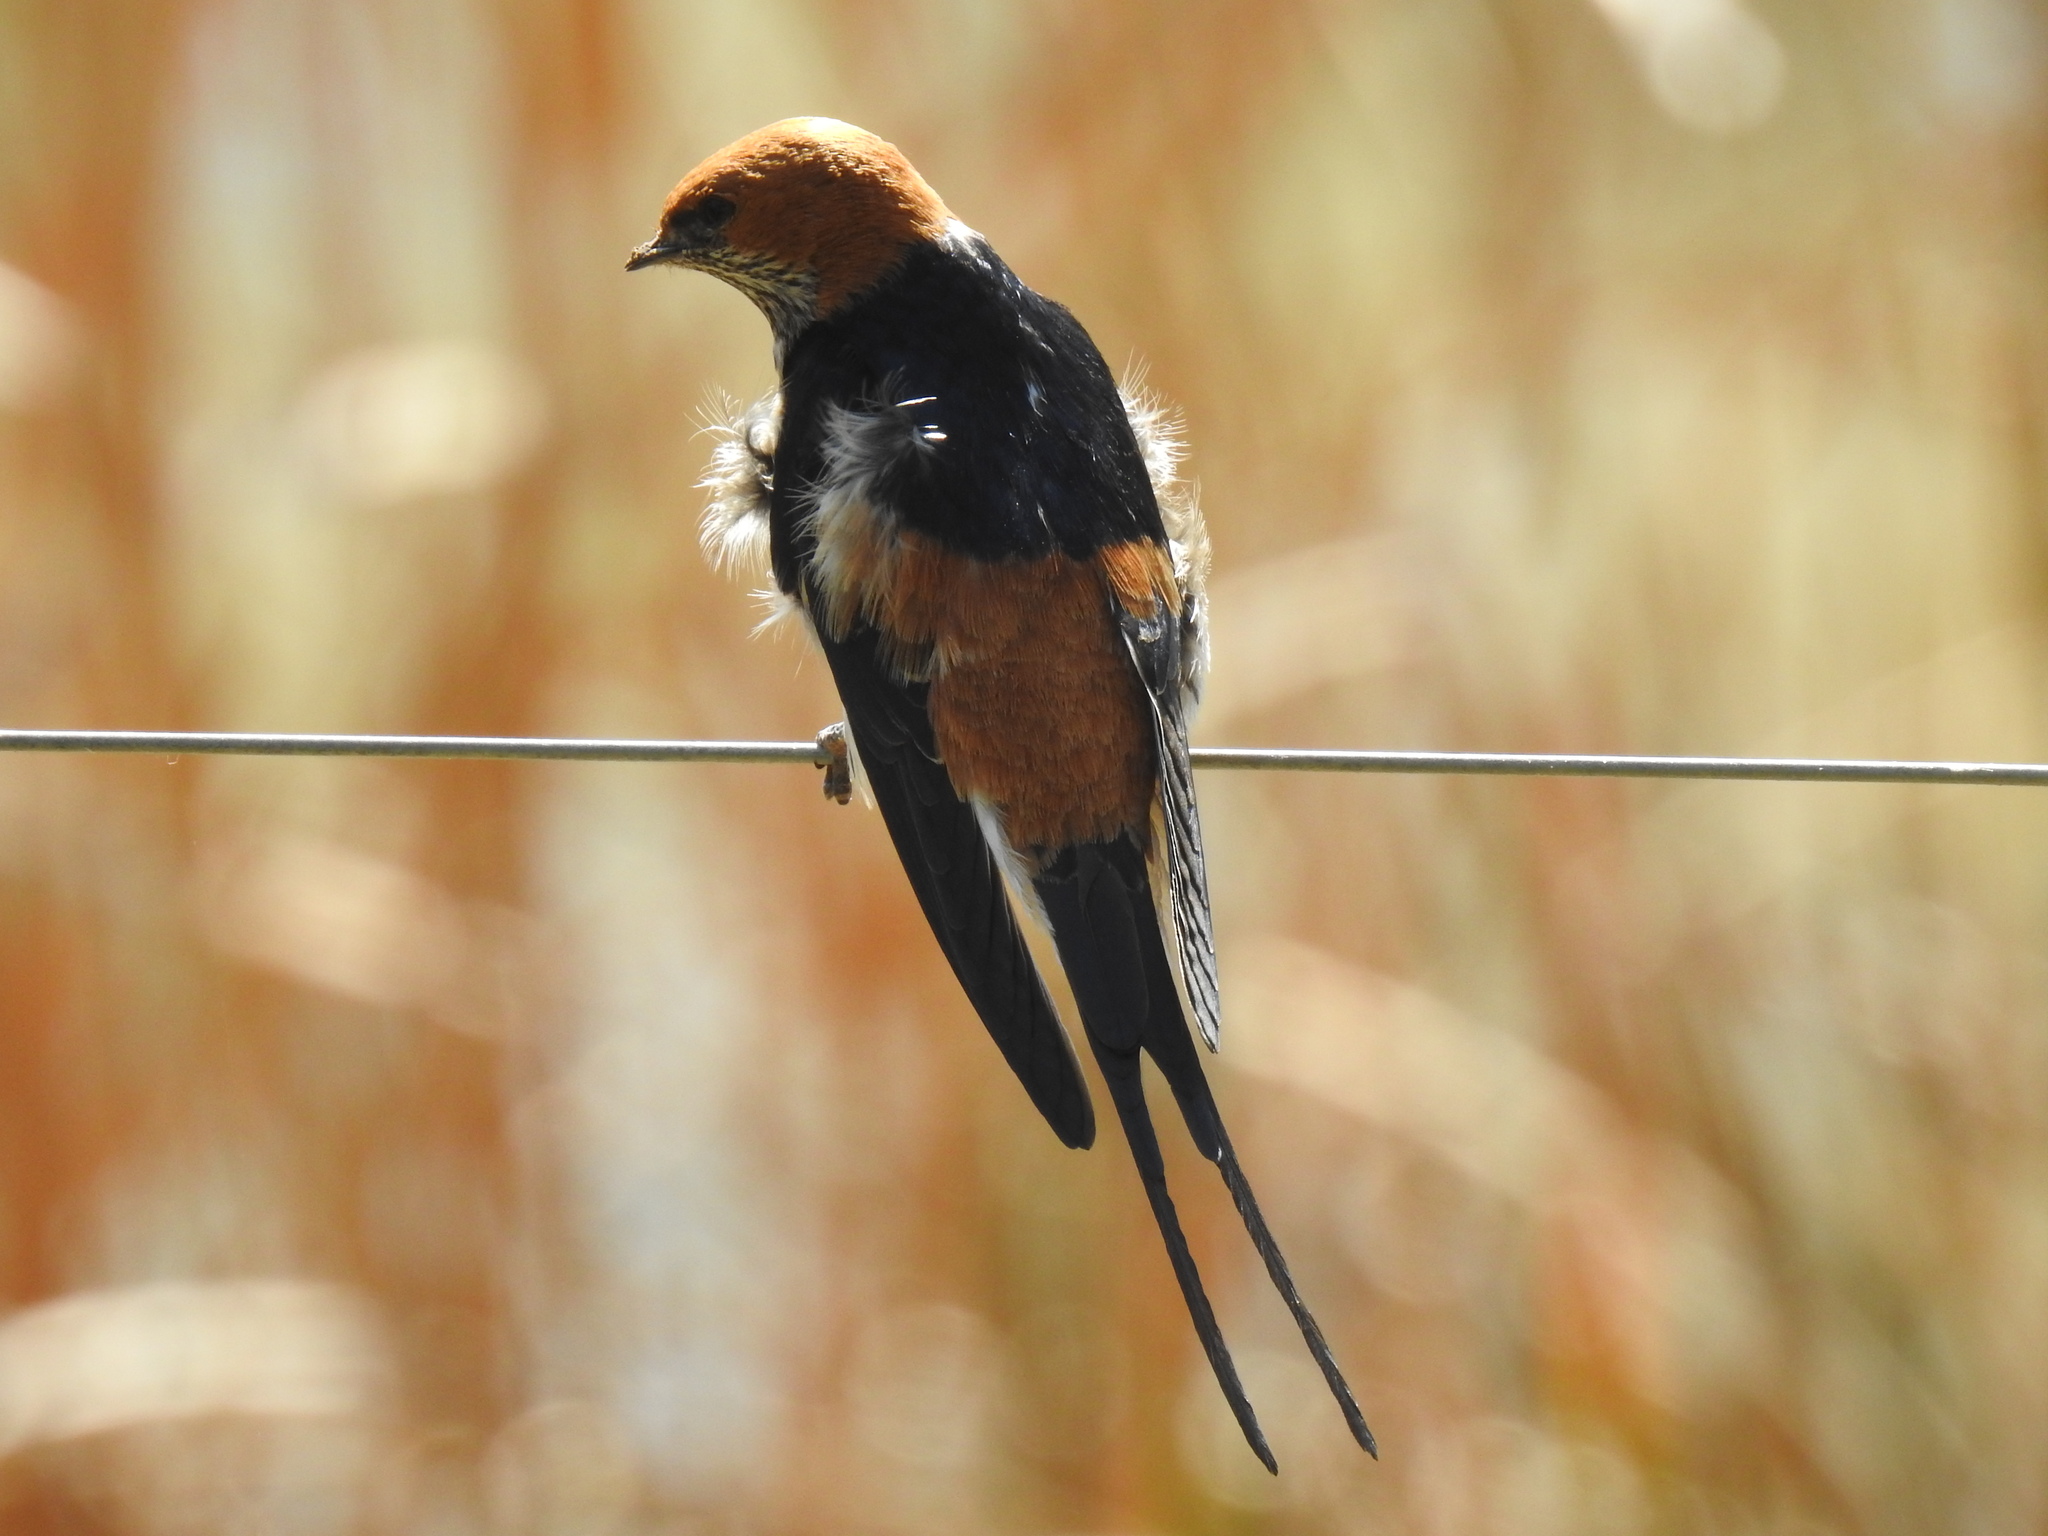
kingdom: Animalia
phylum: Chordata
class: Aves
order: Passeriformes
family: Hirundinidae
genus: Cecropis
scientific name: Cecropis abyssinica
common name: Lesser striped-swallow
